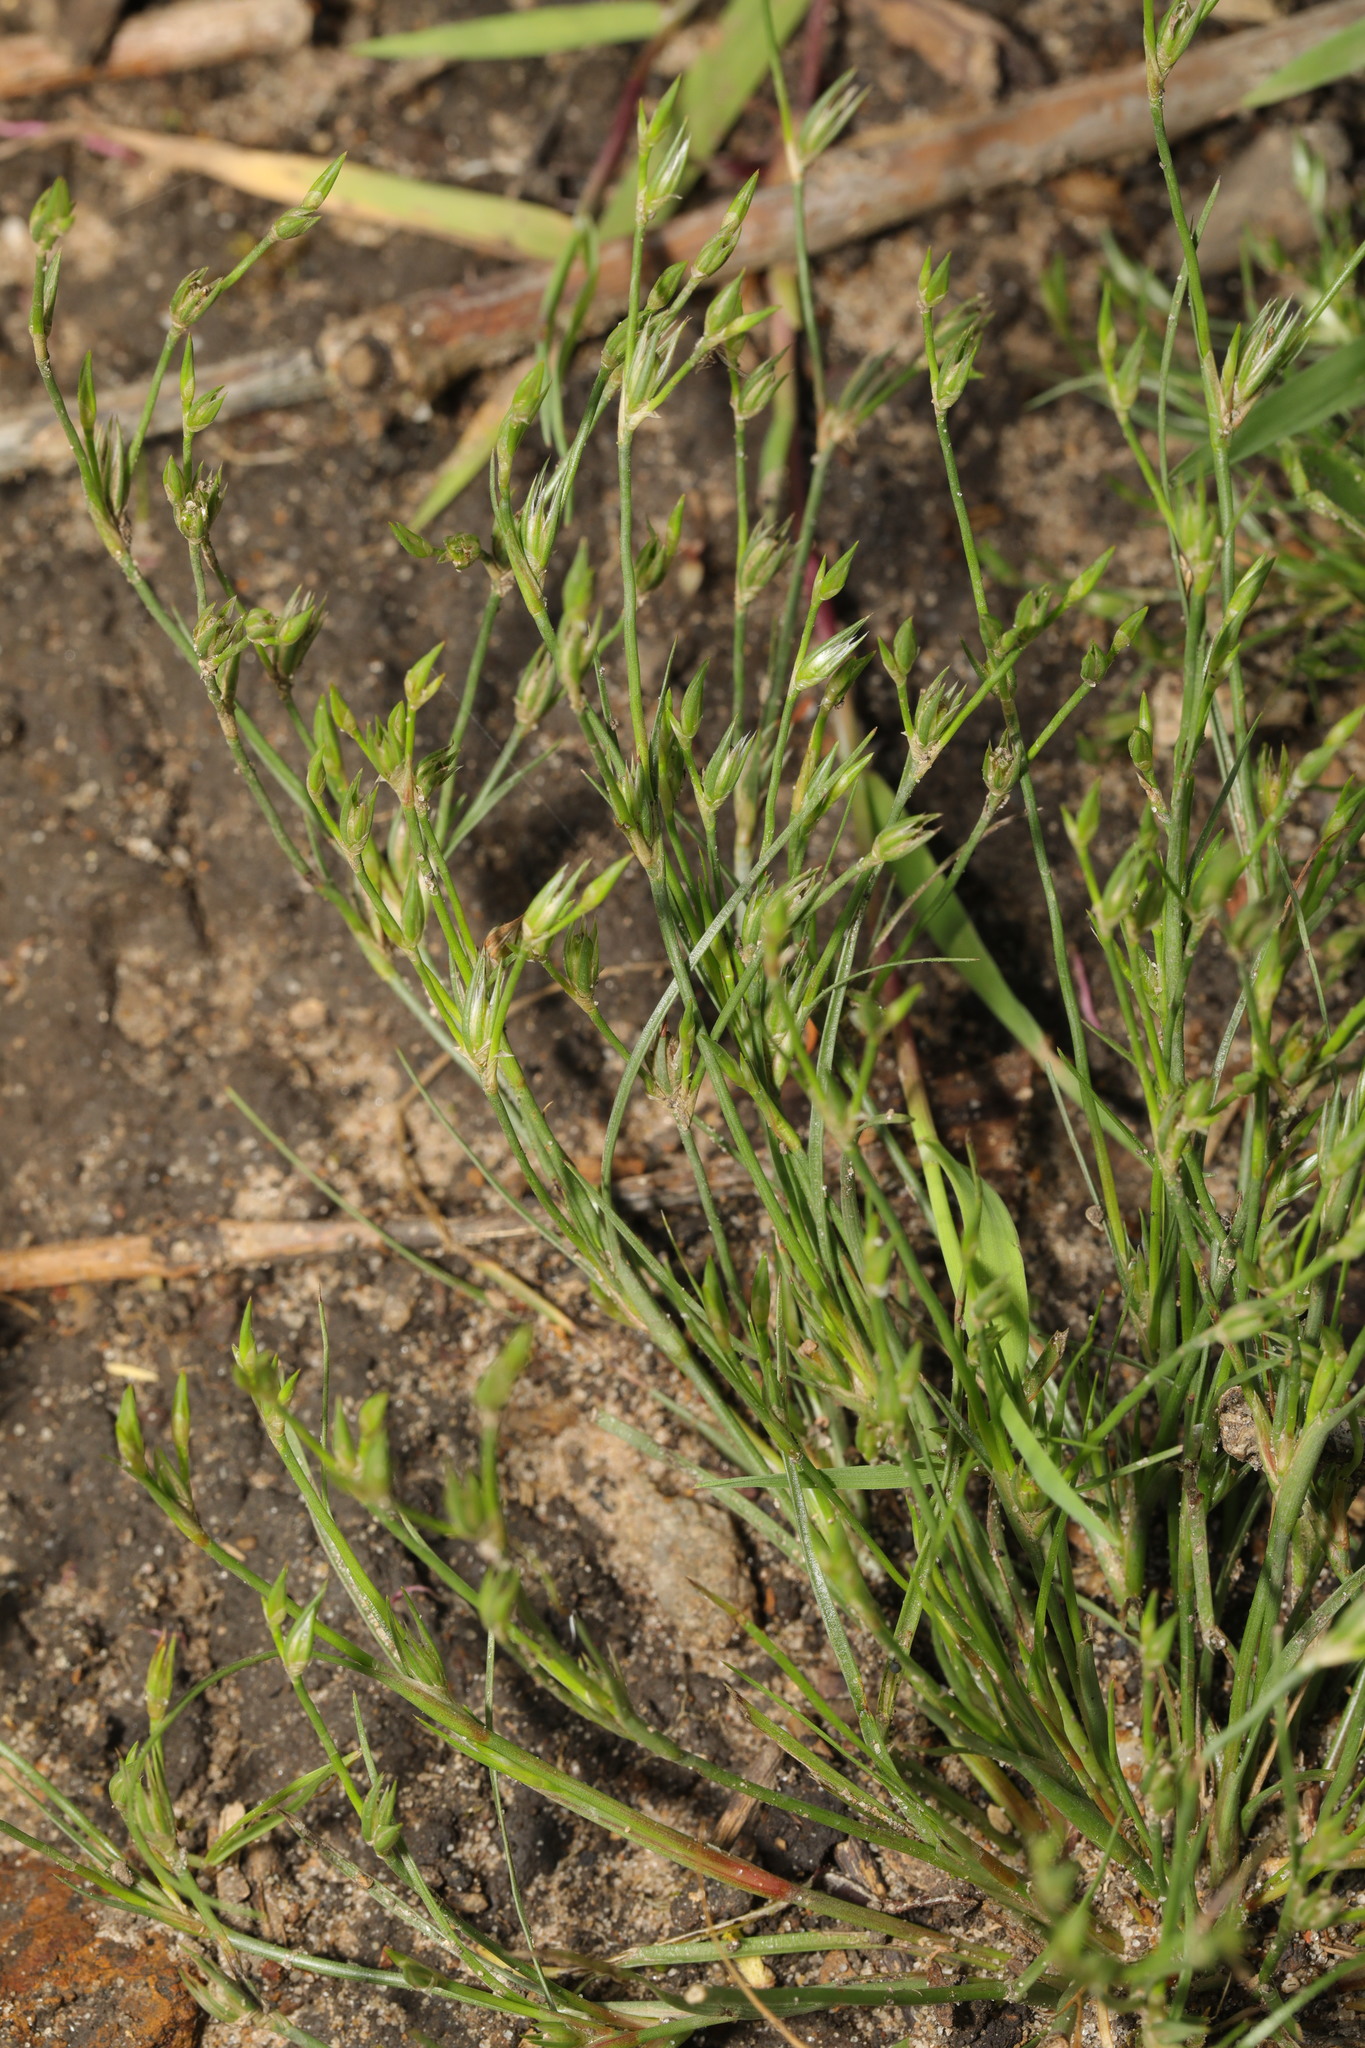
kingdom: Plantae
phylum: Tracheophyta
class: Liliopsida
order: Poales
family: Juncaceae
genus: Juncus
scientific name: Juncus bufonius
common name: Toad rush
